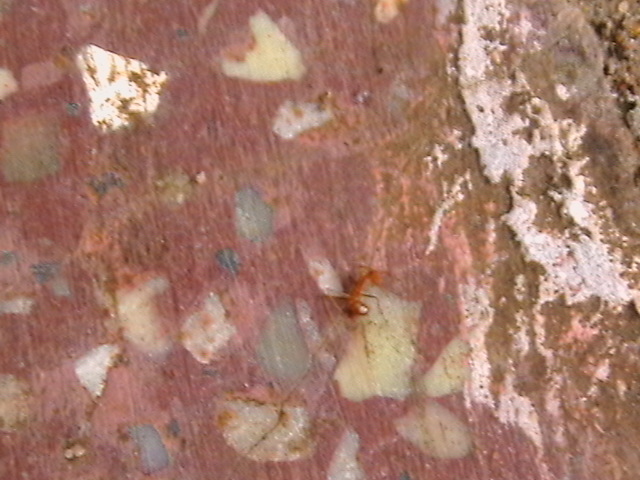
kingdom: Animalia
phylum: Arthropoda
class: Insecta
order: Hymenoptera
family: Formicidae
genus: Oecophylla
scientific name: Oecophylla smaragdina
